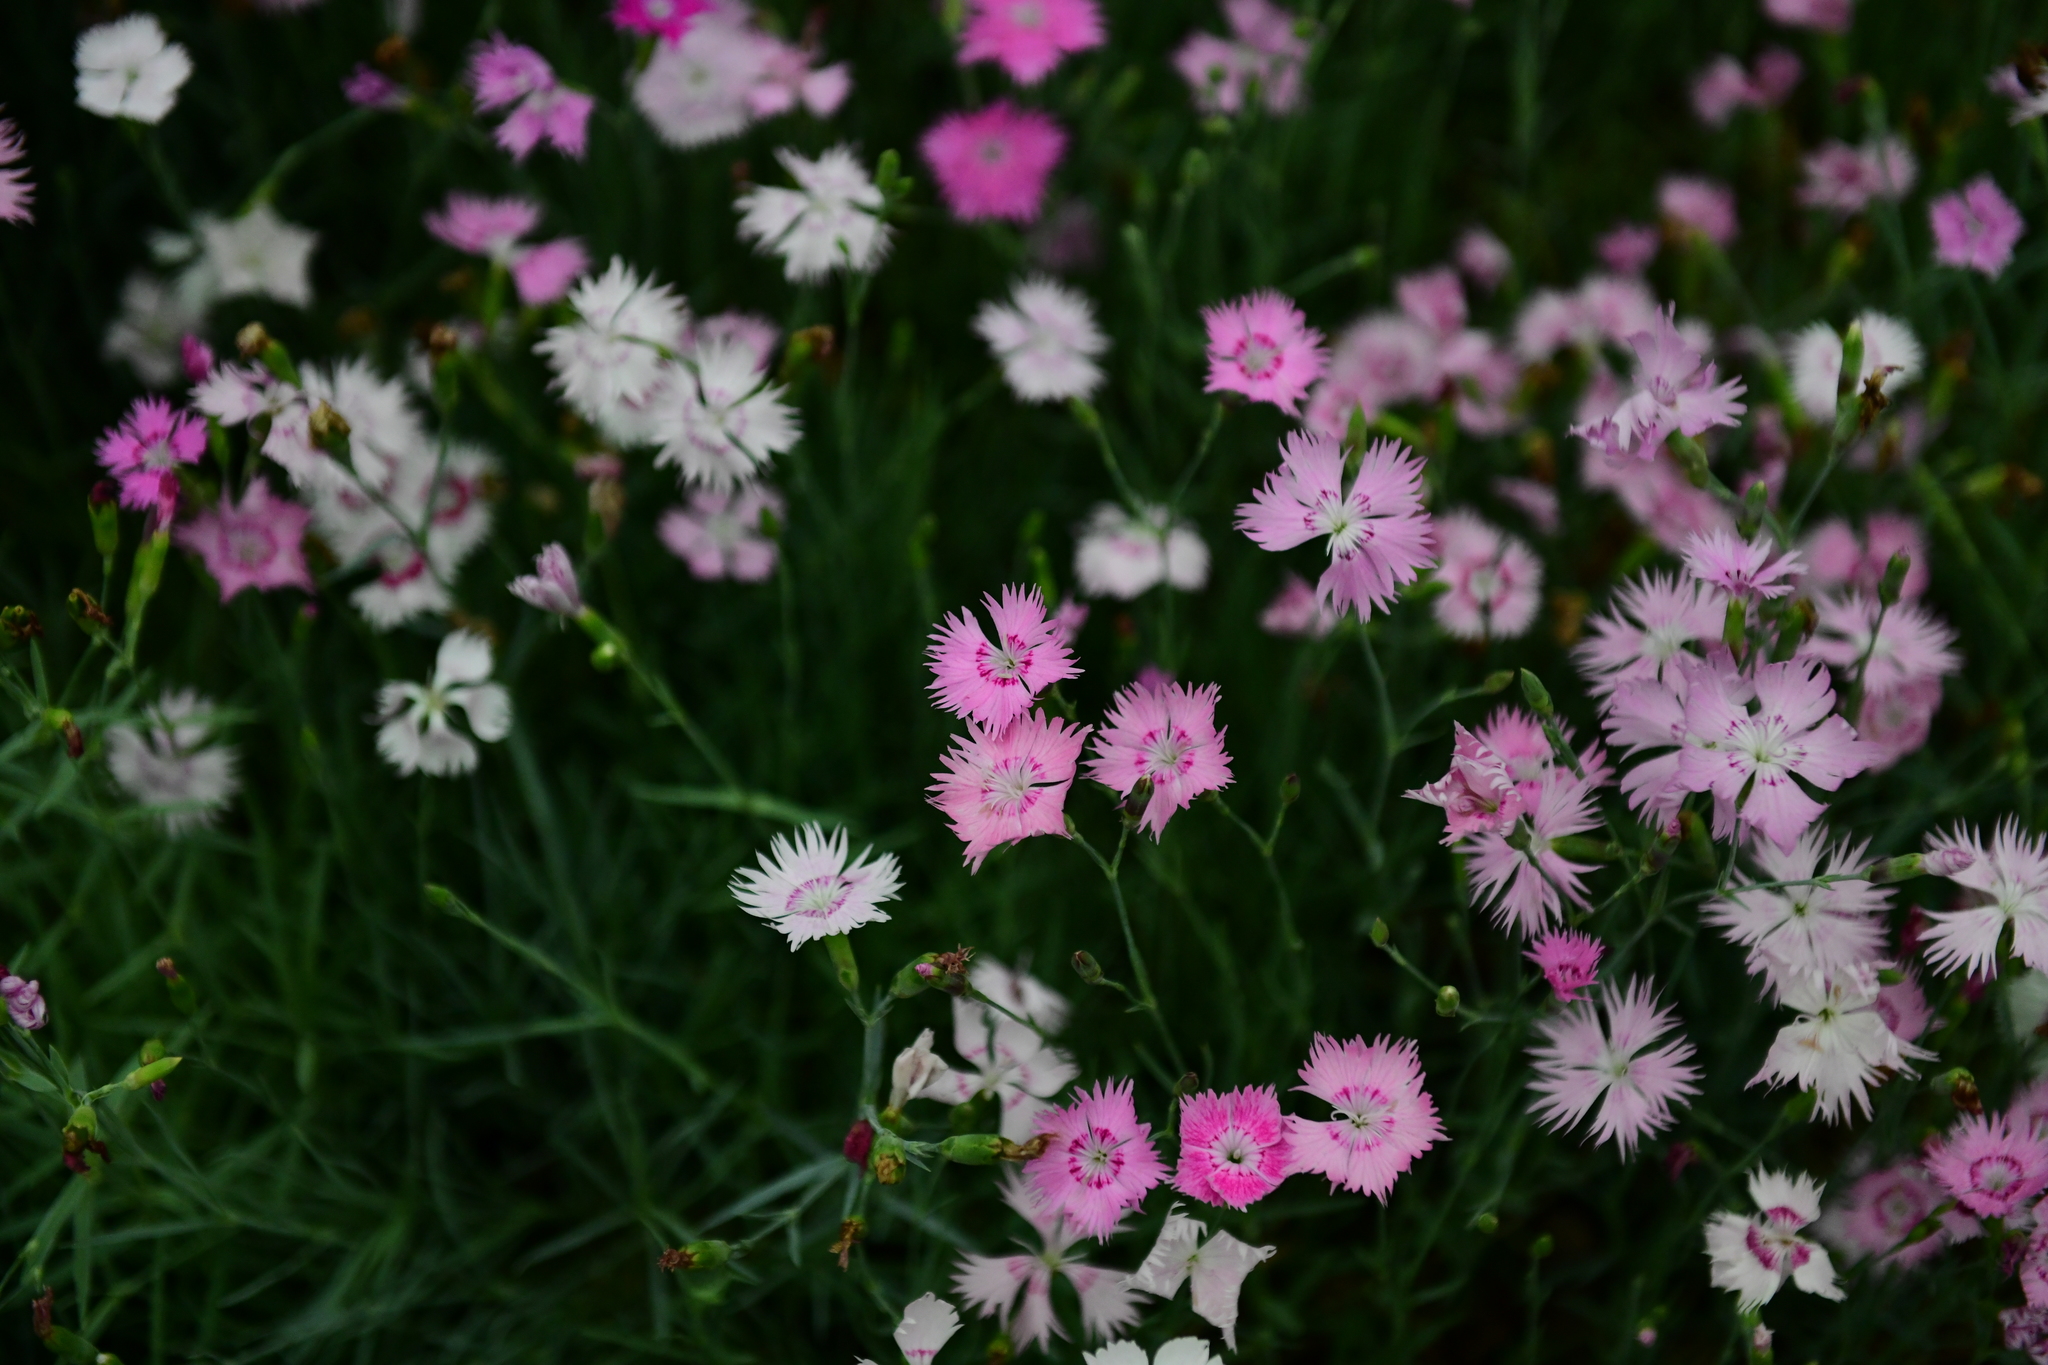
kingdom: Plantae
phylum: Tracheophyta
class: Magnoliopsida
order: Caryophyllales
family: Caryophyllaceae
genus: Dianthus
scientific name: Dianthus chinensis
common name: Rainbow pink
